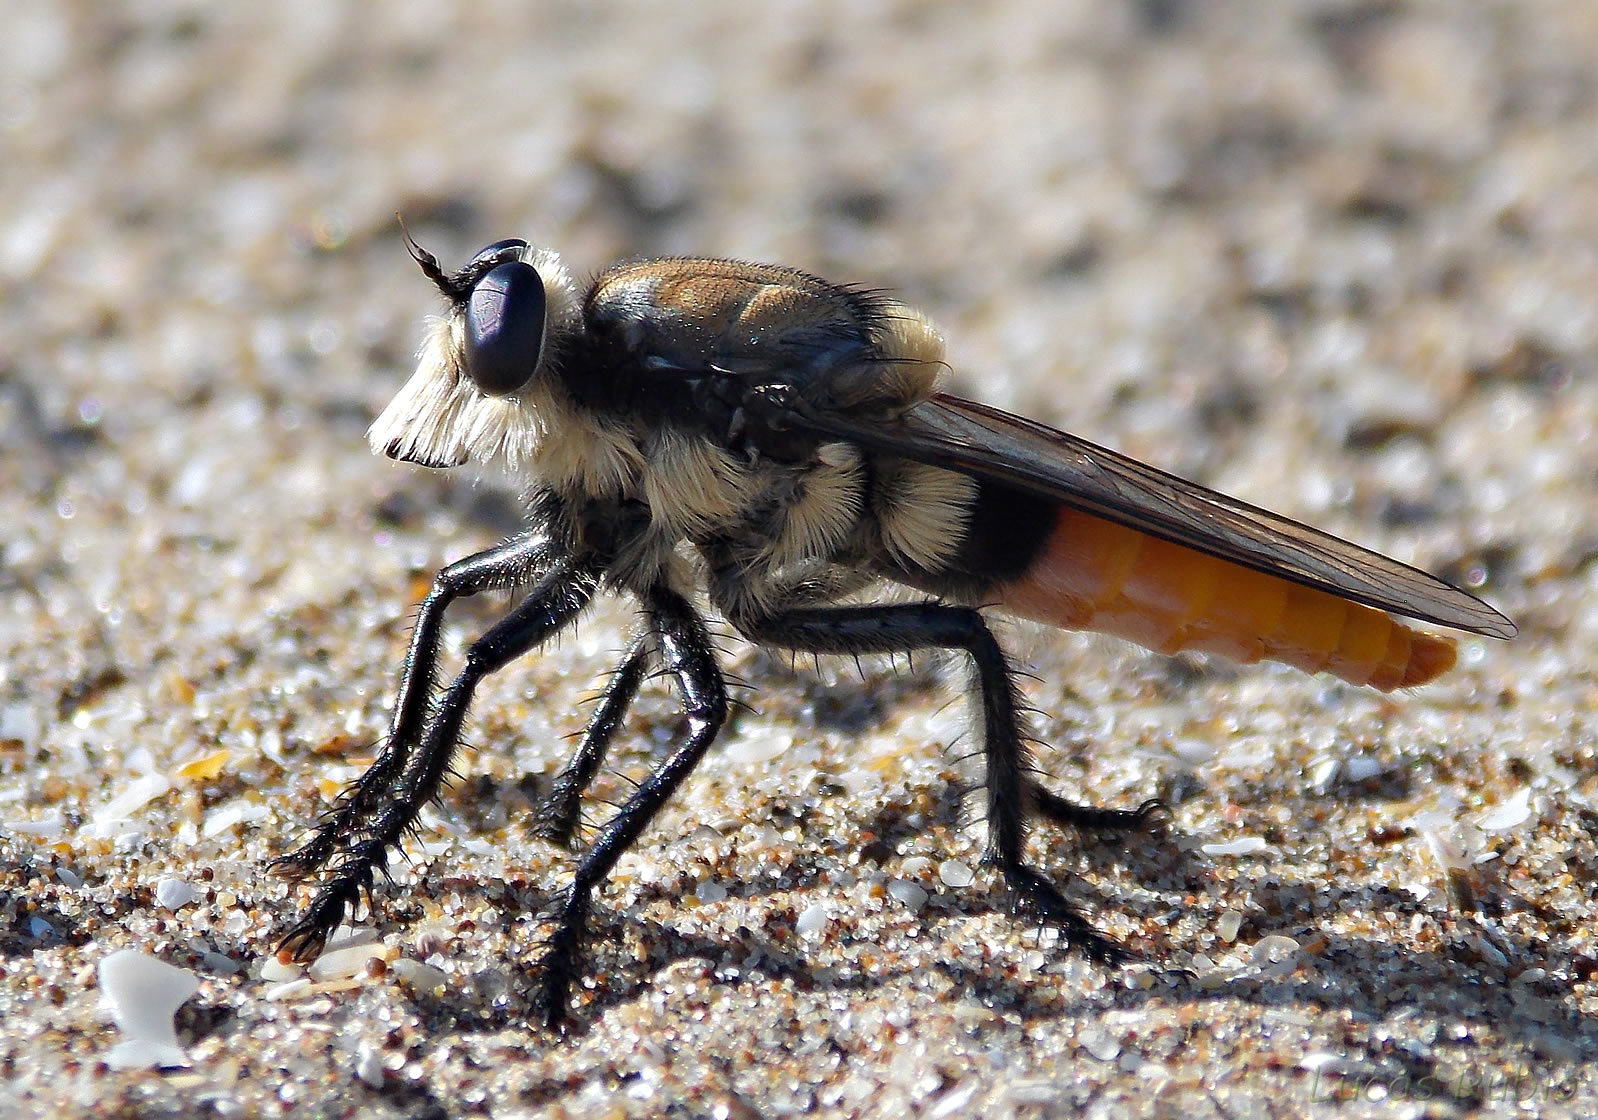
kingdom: Animalia
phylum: Arthropoda
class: Insecta
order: Diptera
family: Asilidae
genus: Eccritosia
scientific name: Eccritosia rubriventris
